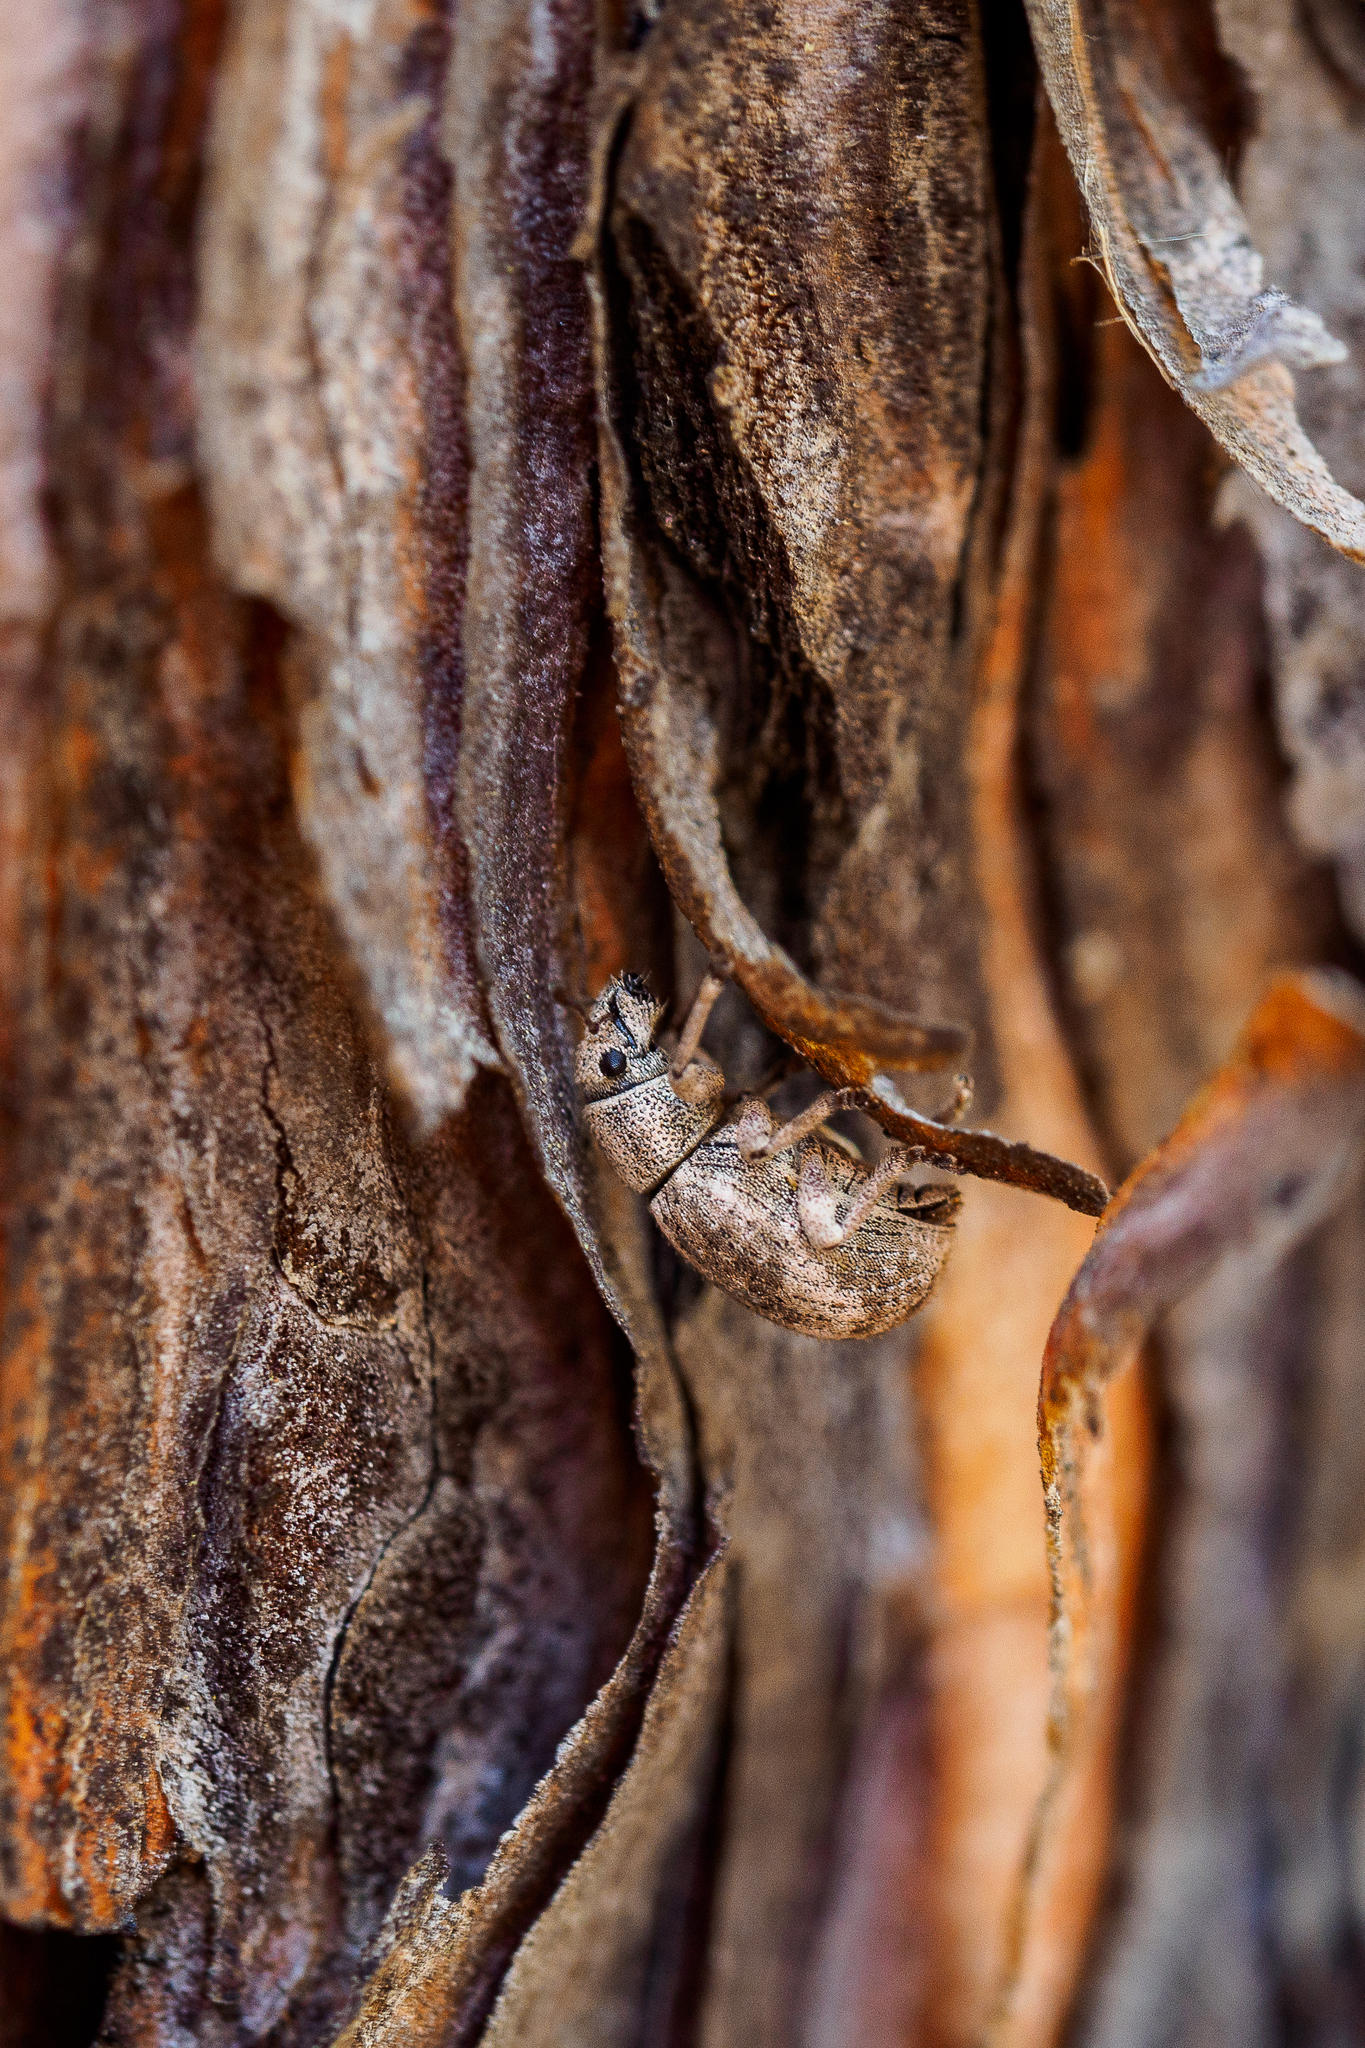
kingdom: Animalia
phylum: Arthropoda
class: Insecta
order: Coleoptera
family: Curculionidae
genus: Strophosoma
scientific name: Strophosoma capitatum
